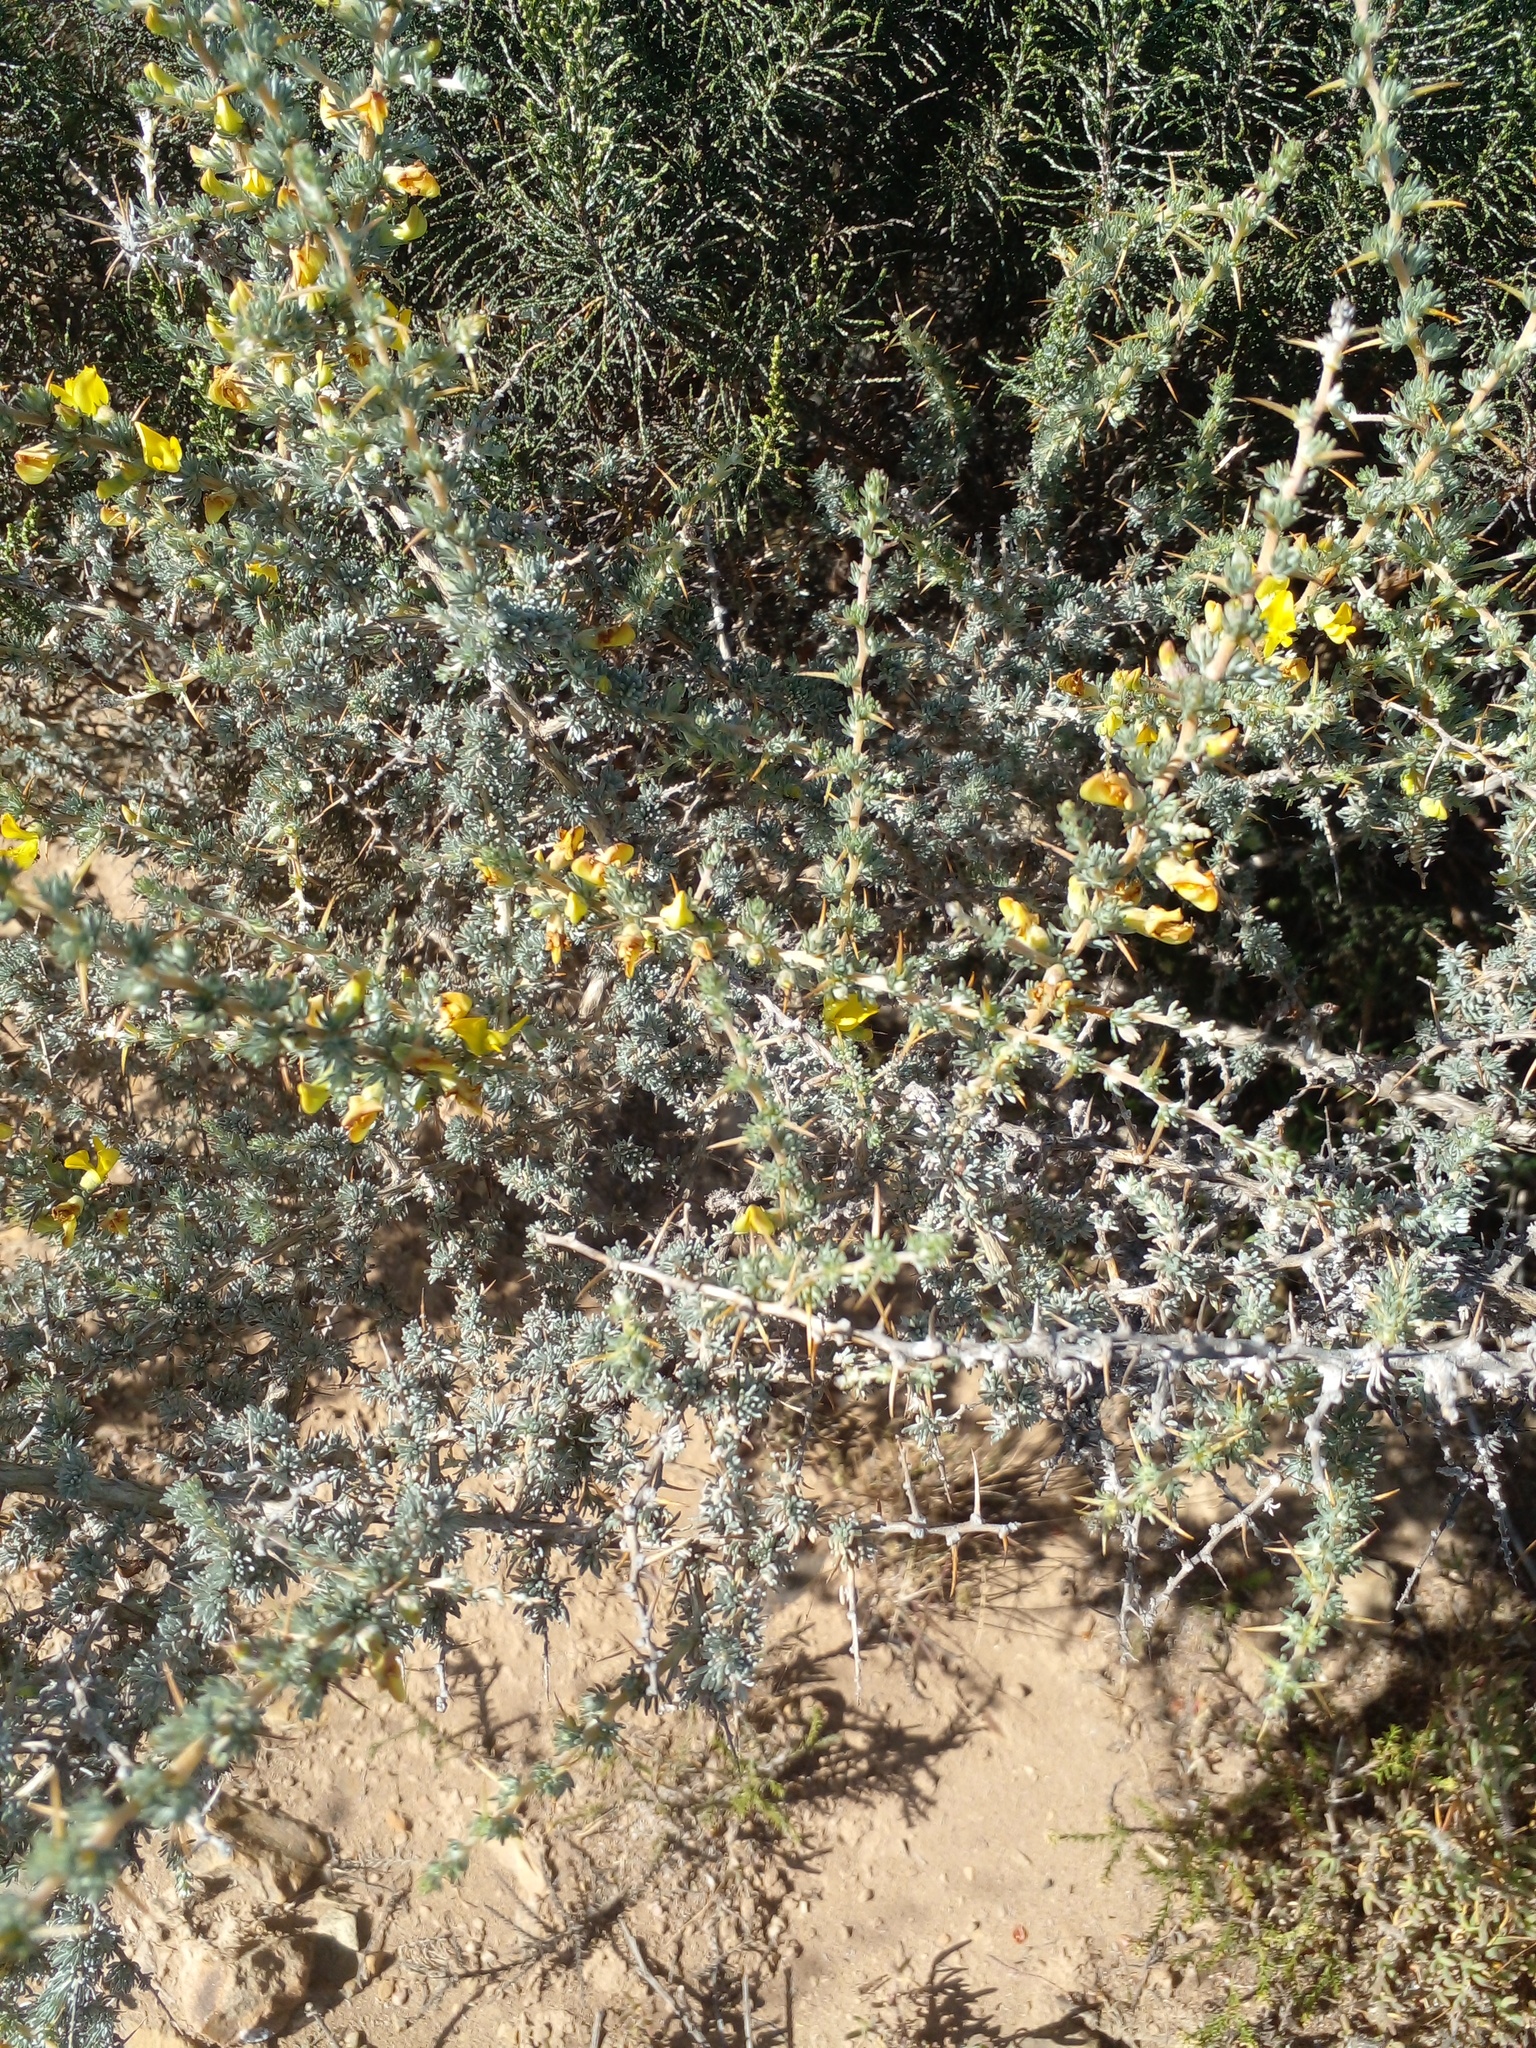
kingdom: Plantae
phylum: Tracheophyta
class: Magnoliopsida
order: Fabales
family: Fabaceae
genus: Aspalathus
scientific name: Aspalathus acanthophylla
